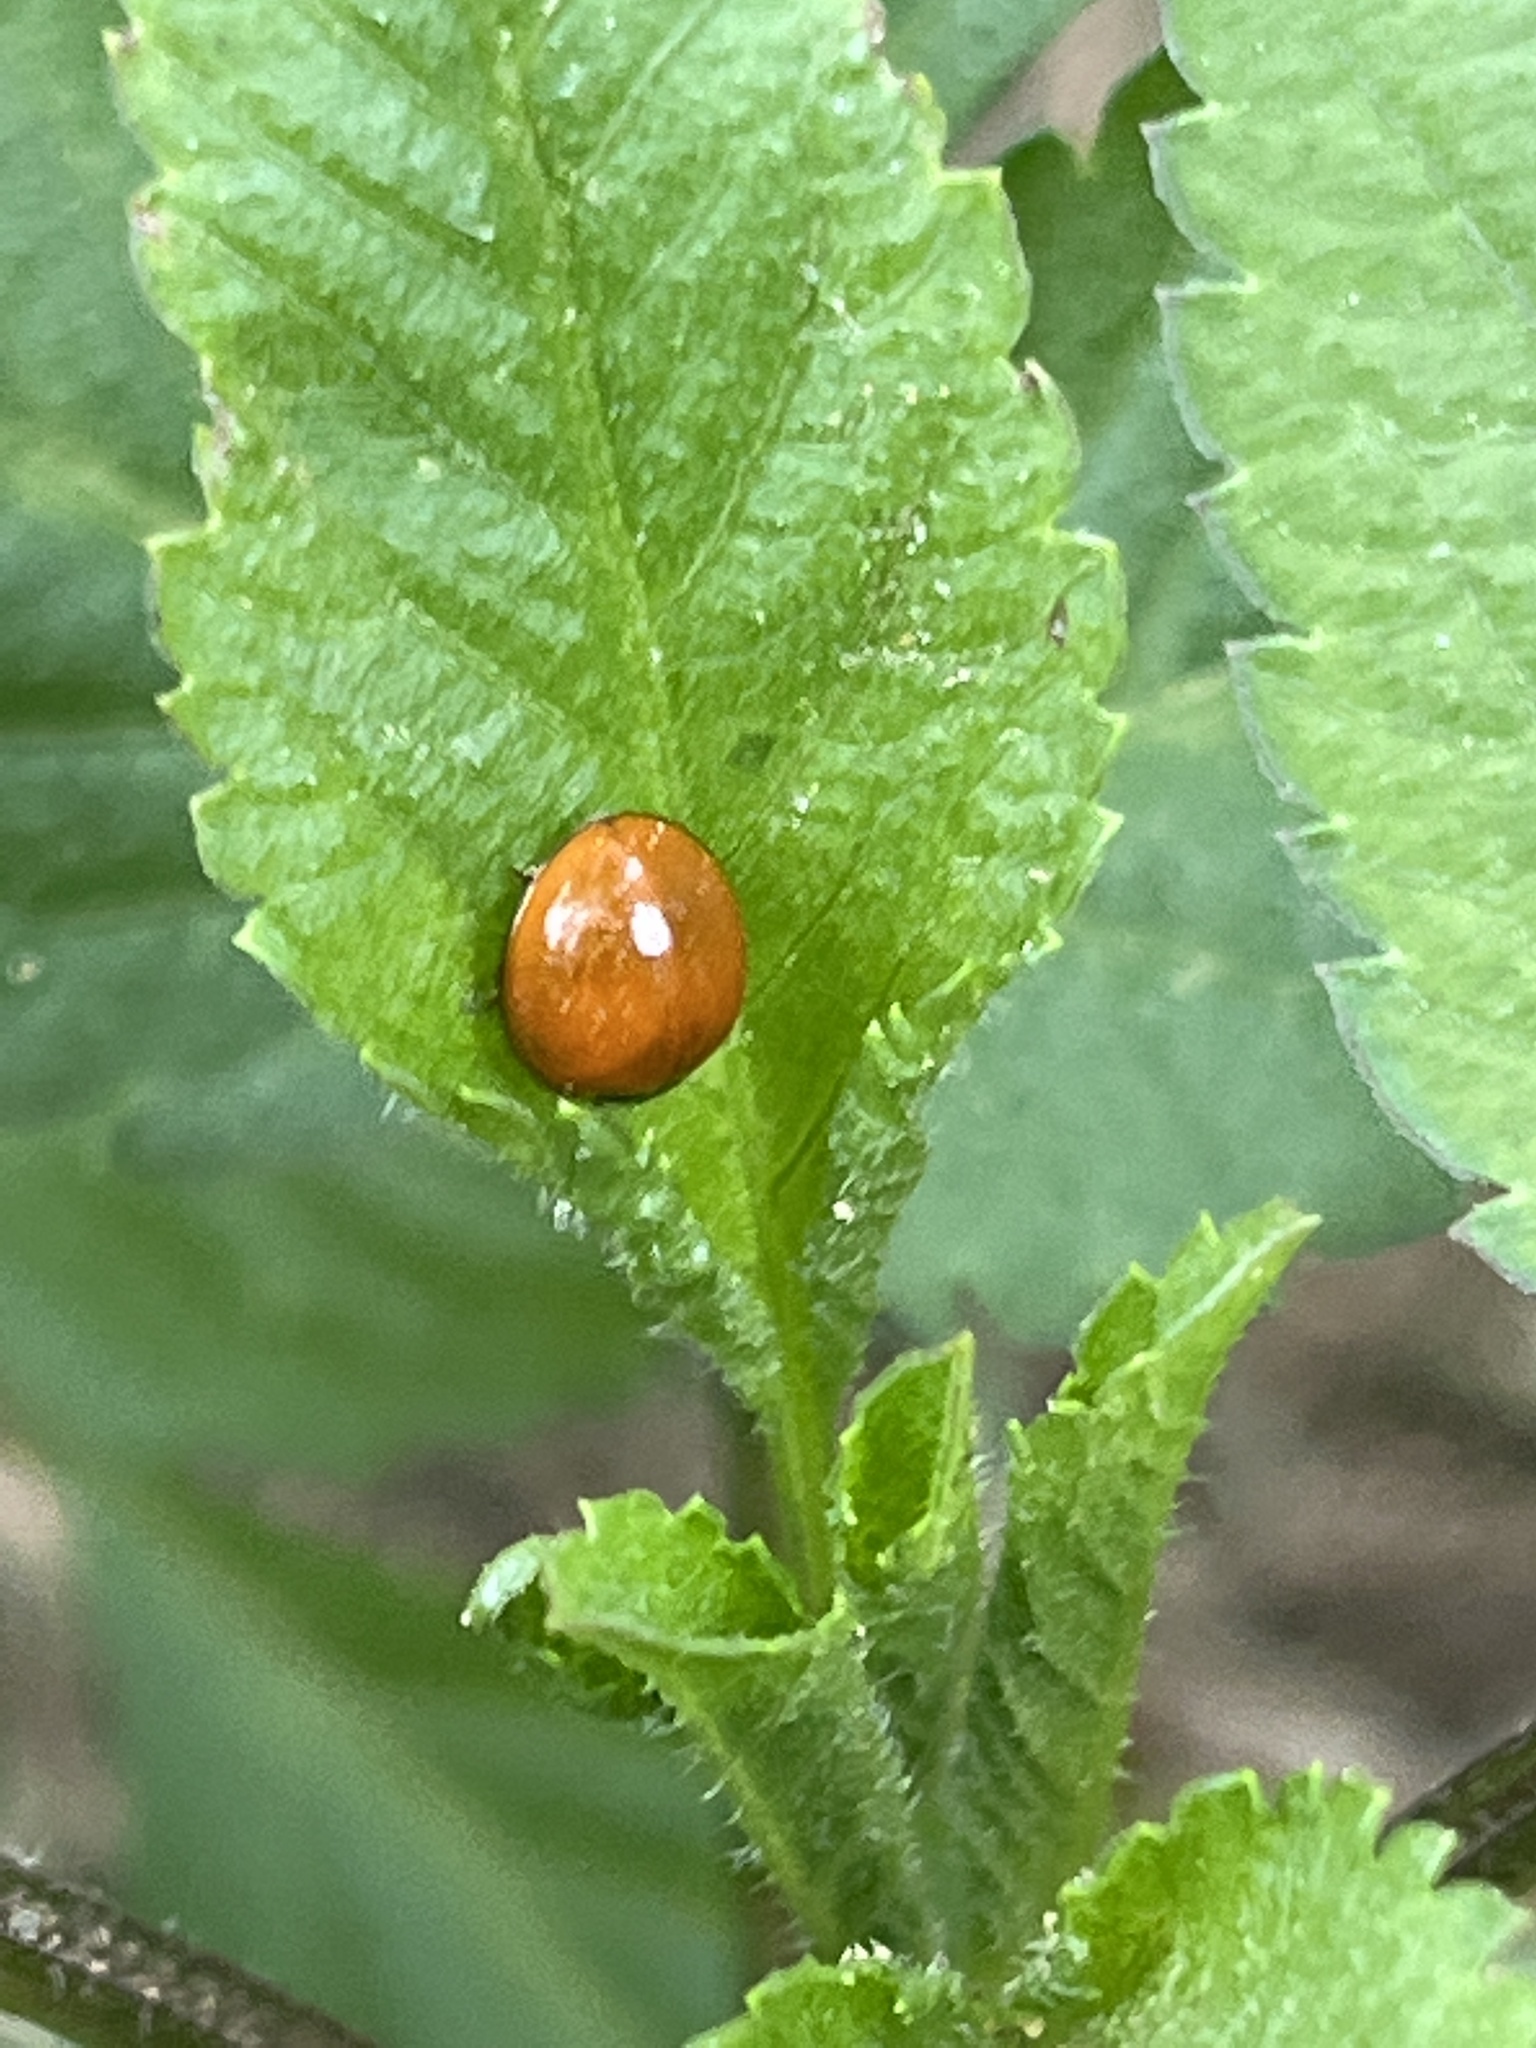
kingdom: Animalia
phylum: Arthropoda
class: Insecta
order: Coleoptera
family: Coccinellidae
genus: Cycloneda
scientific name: Cycloneda sanguinea
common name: Ladybird beetle
